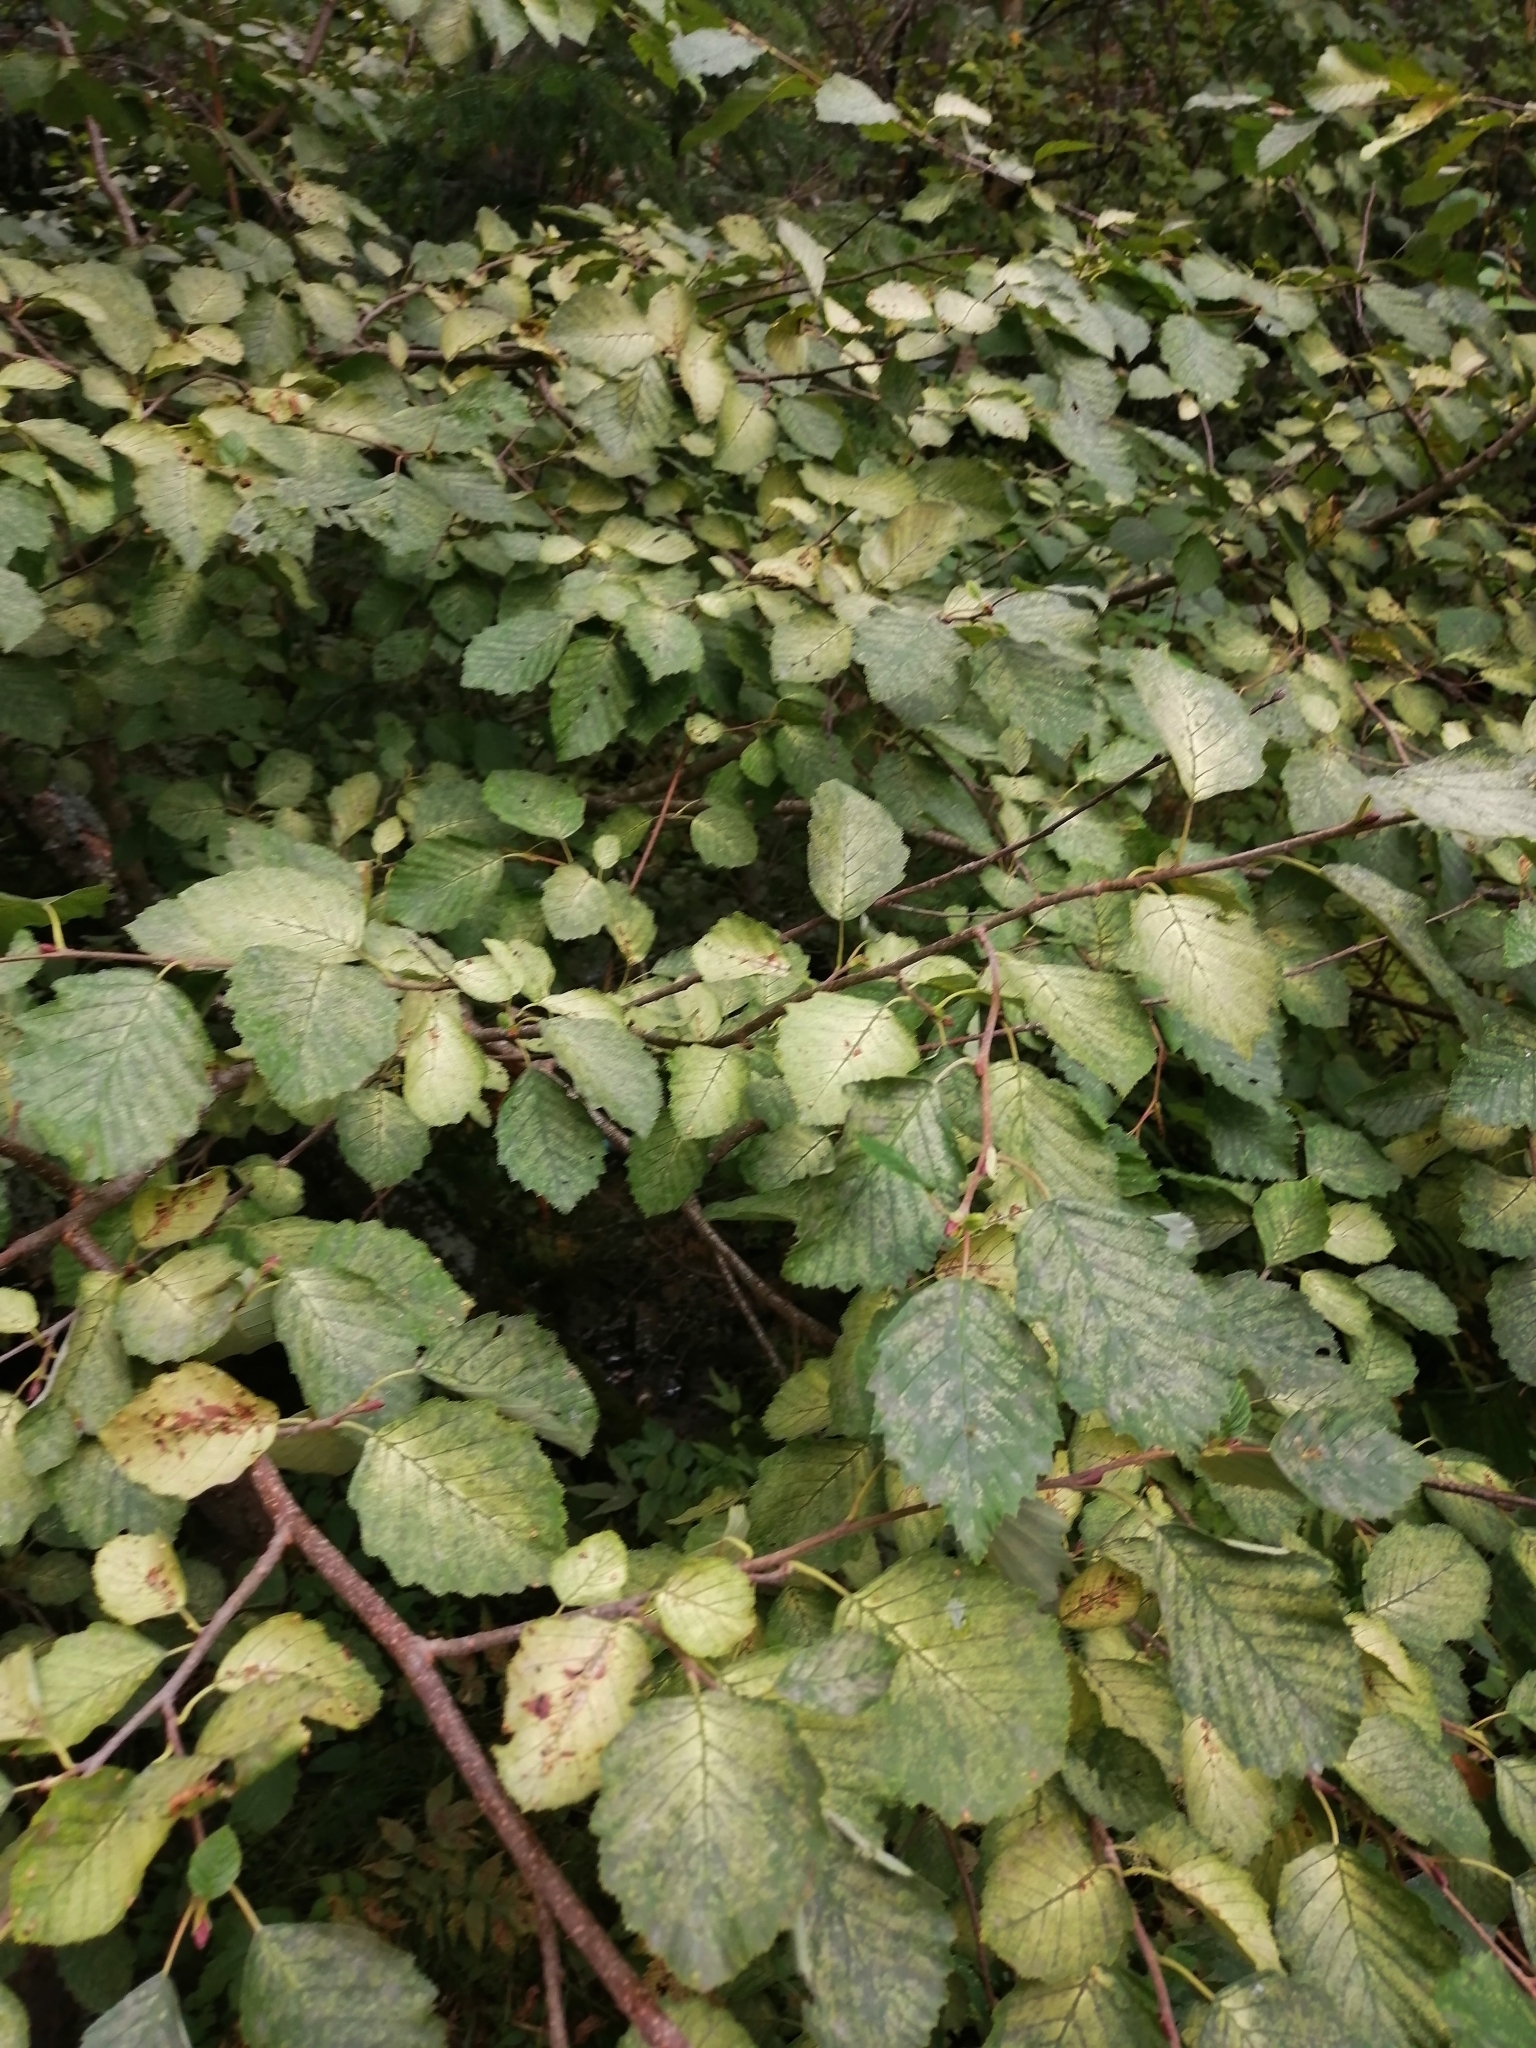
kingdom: Plantae
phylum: Tracheophyta
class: Magnoliopsida
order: Fagales
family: Betulaceae
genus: Alnus
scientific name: Alnus incana
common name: Grey alder
